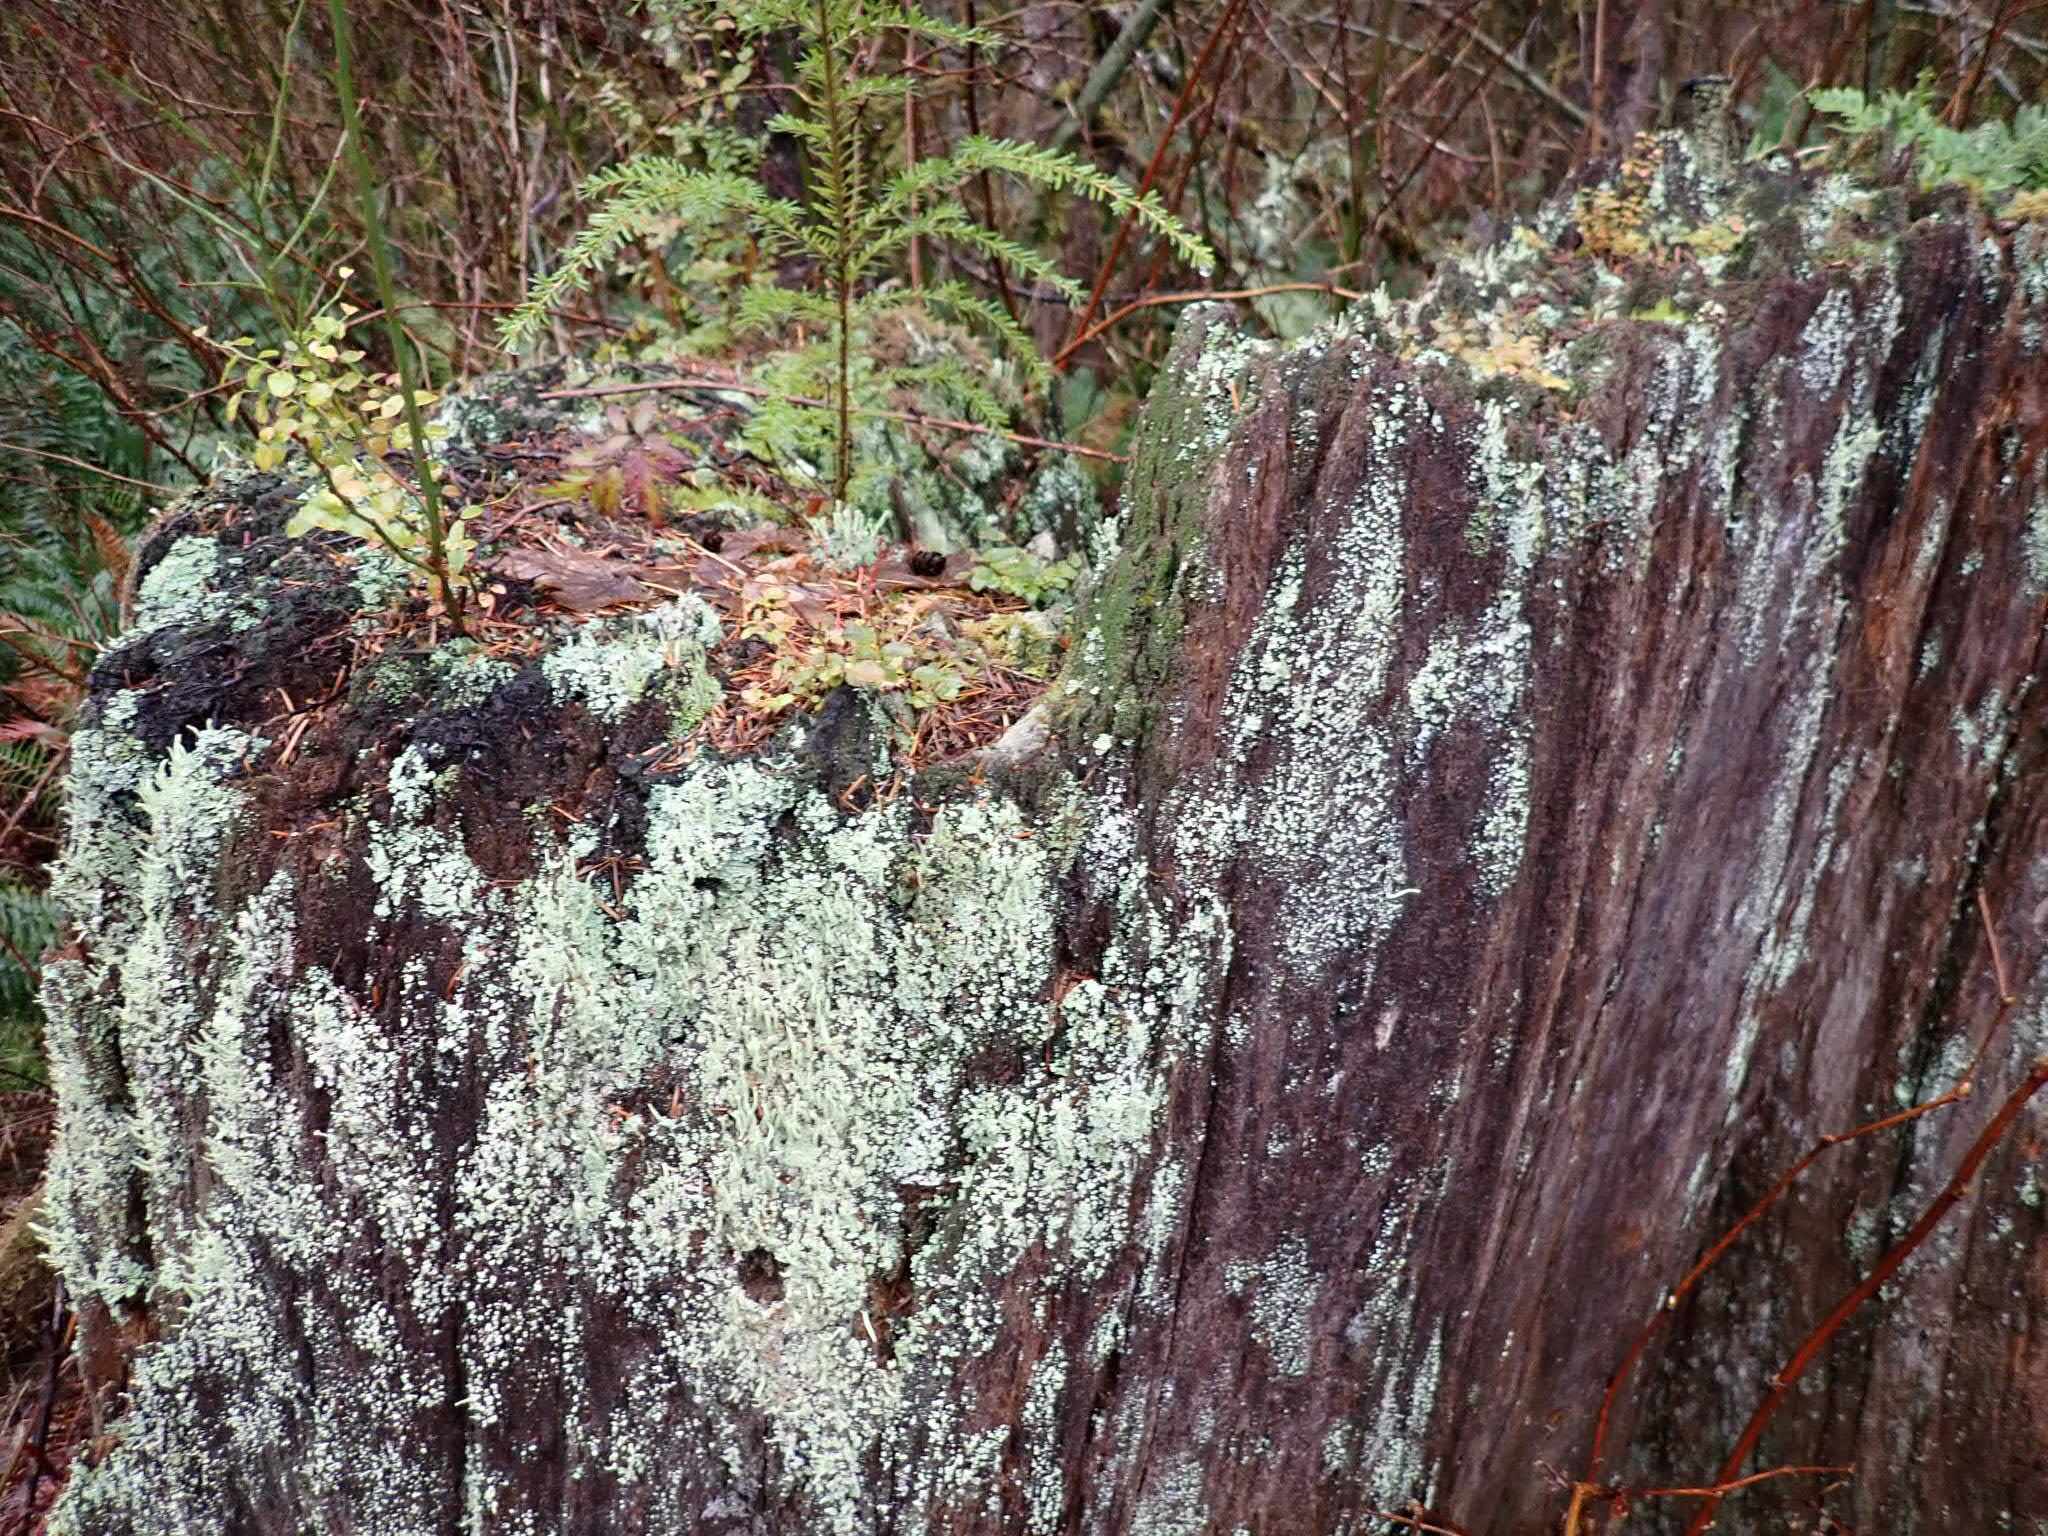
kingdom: Plantae
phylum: Tracheophyta
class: Polypodiopsida
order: Polypodiales
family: Polypodiaceae
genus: Polypodium
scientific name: Polypodium glycyrrhiza
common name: Licorice fern
